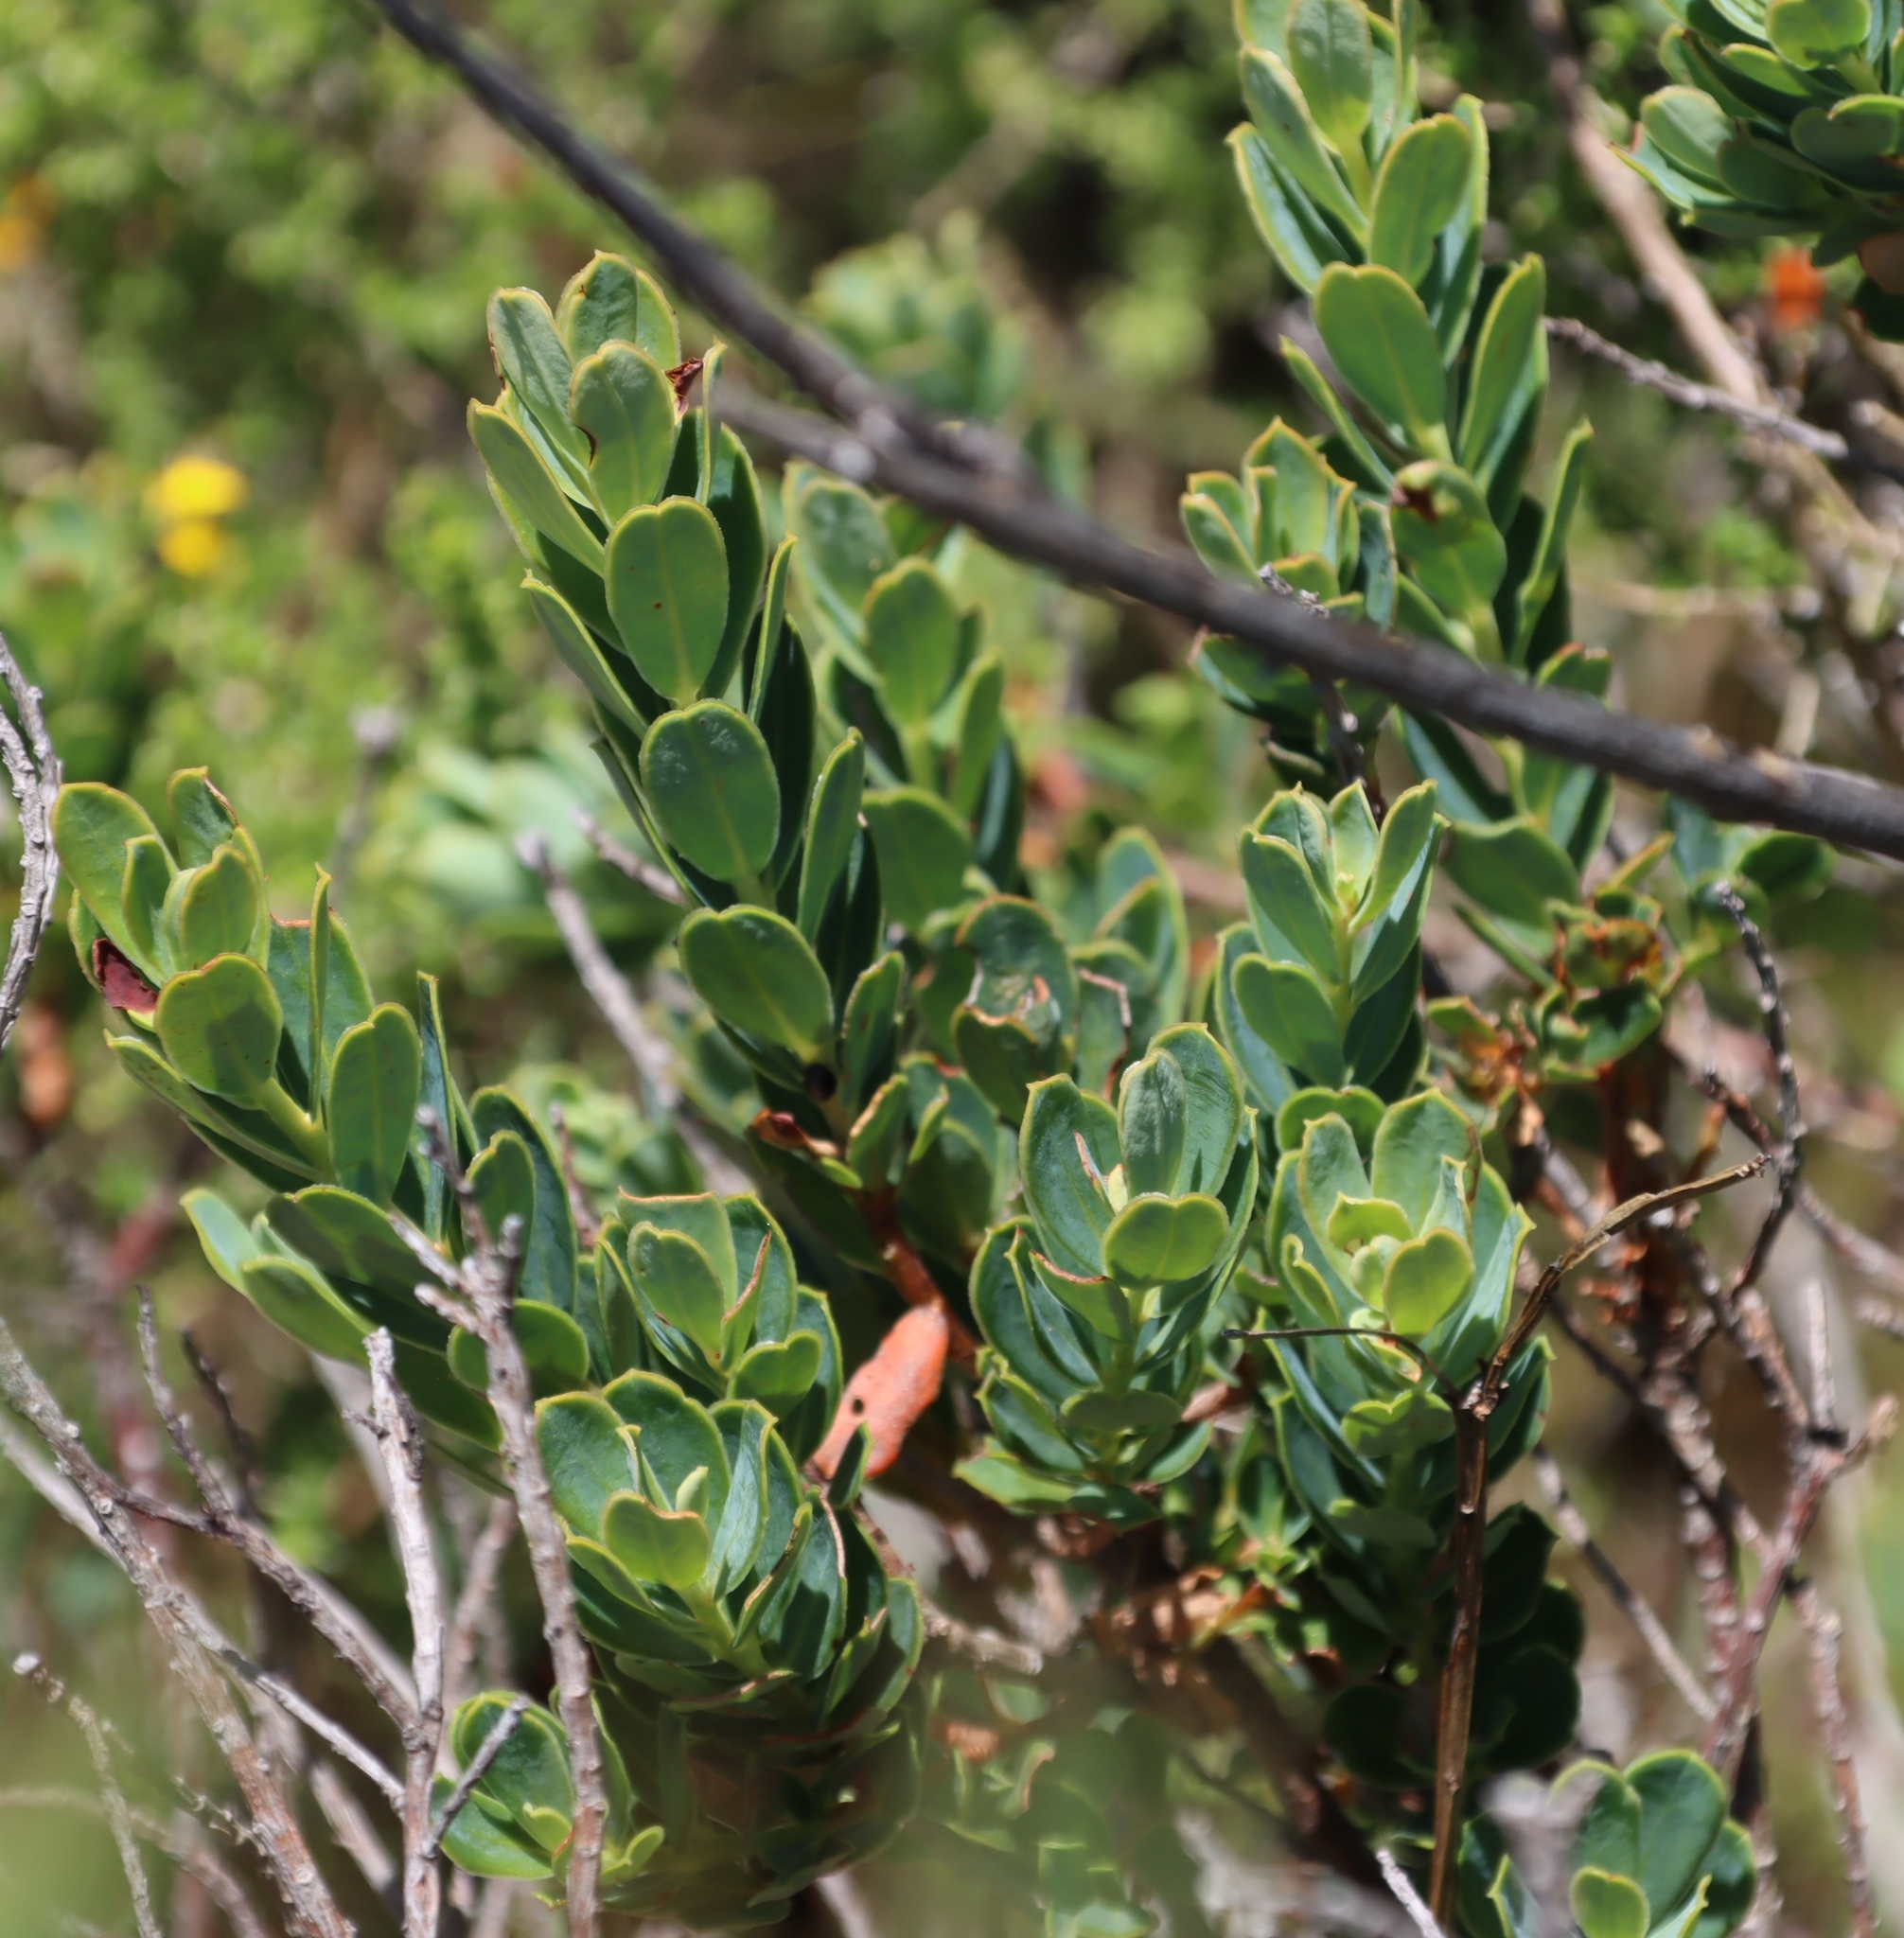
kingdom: Plantae
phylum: Tracheophyta
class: Magnoliopsida
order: Santalales
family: Santalaceae
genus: Osyris
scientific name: Osyris compressa
